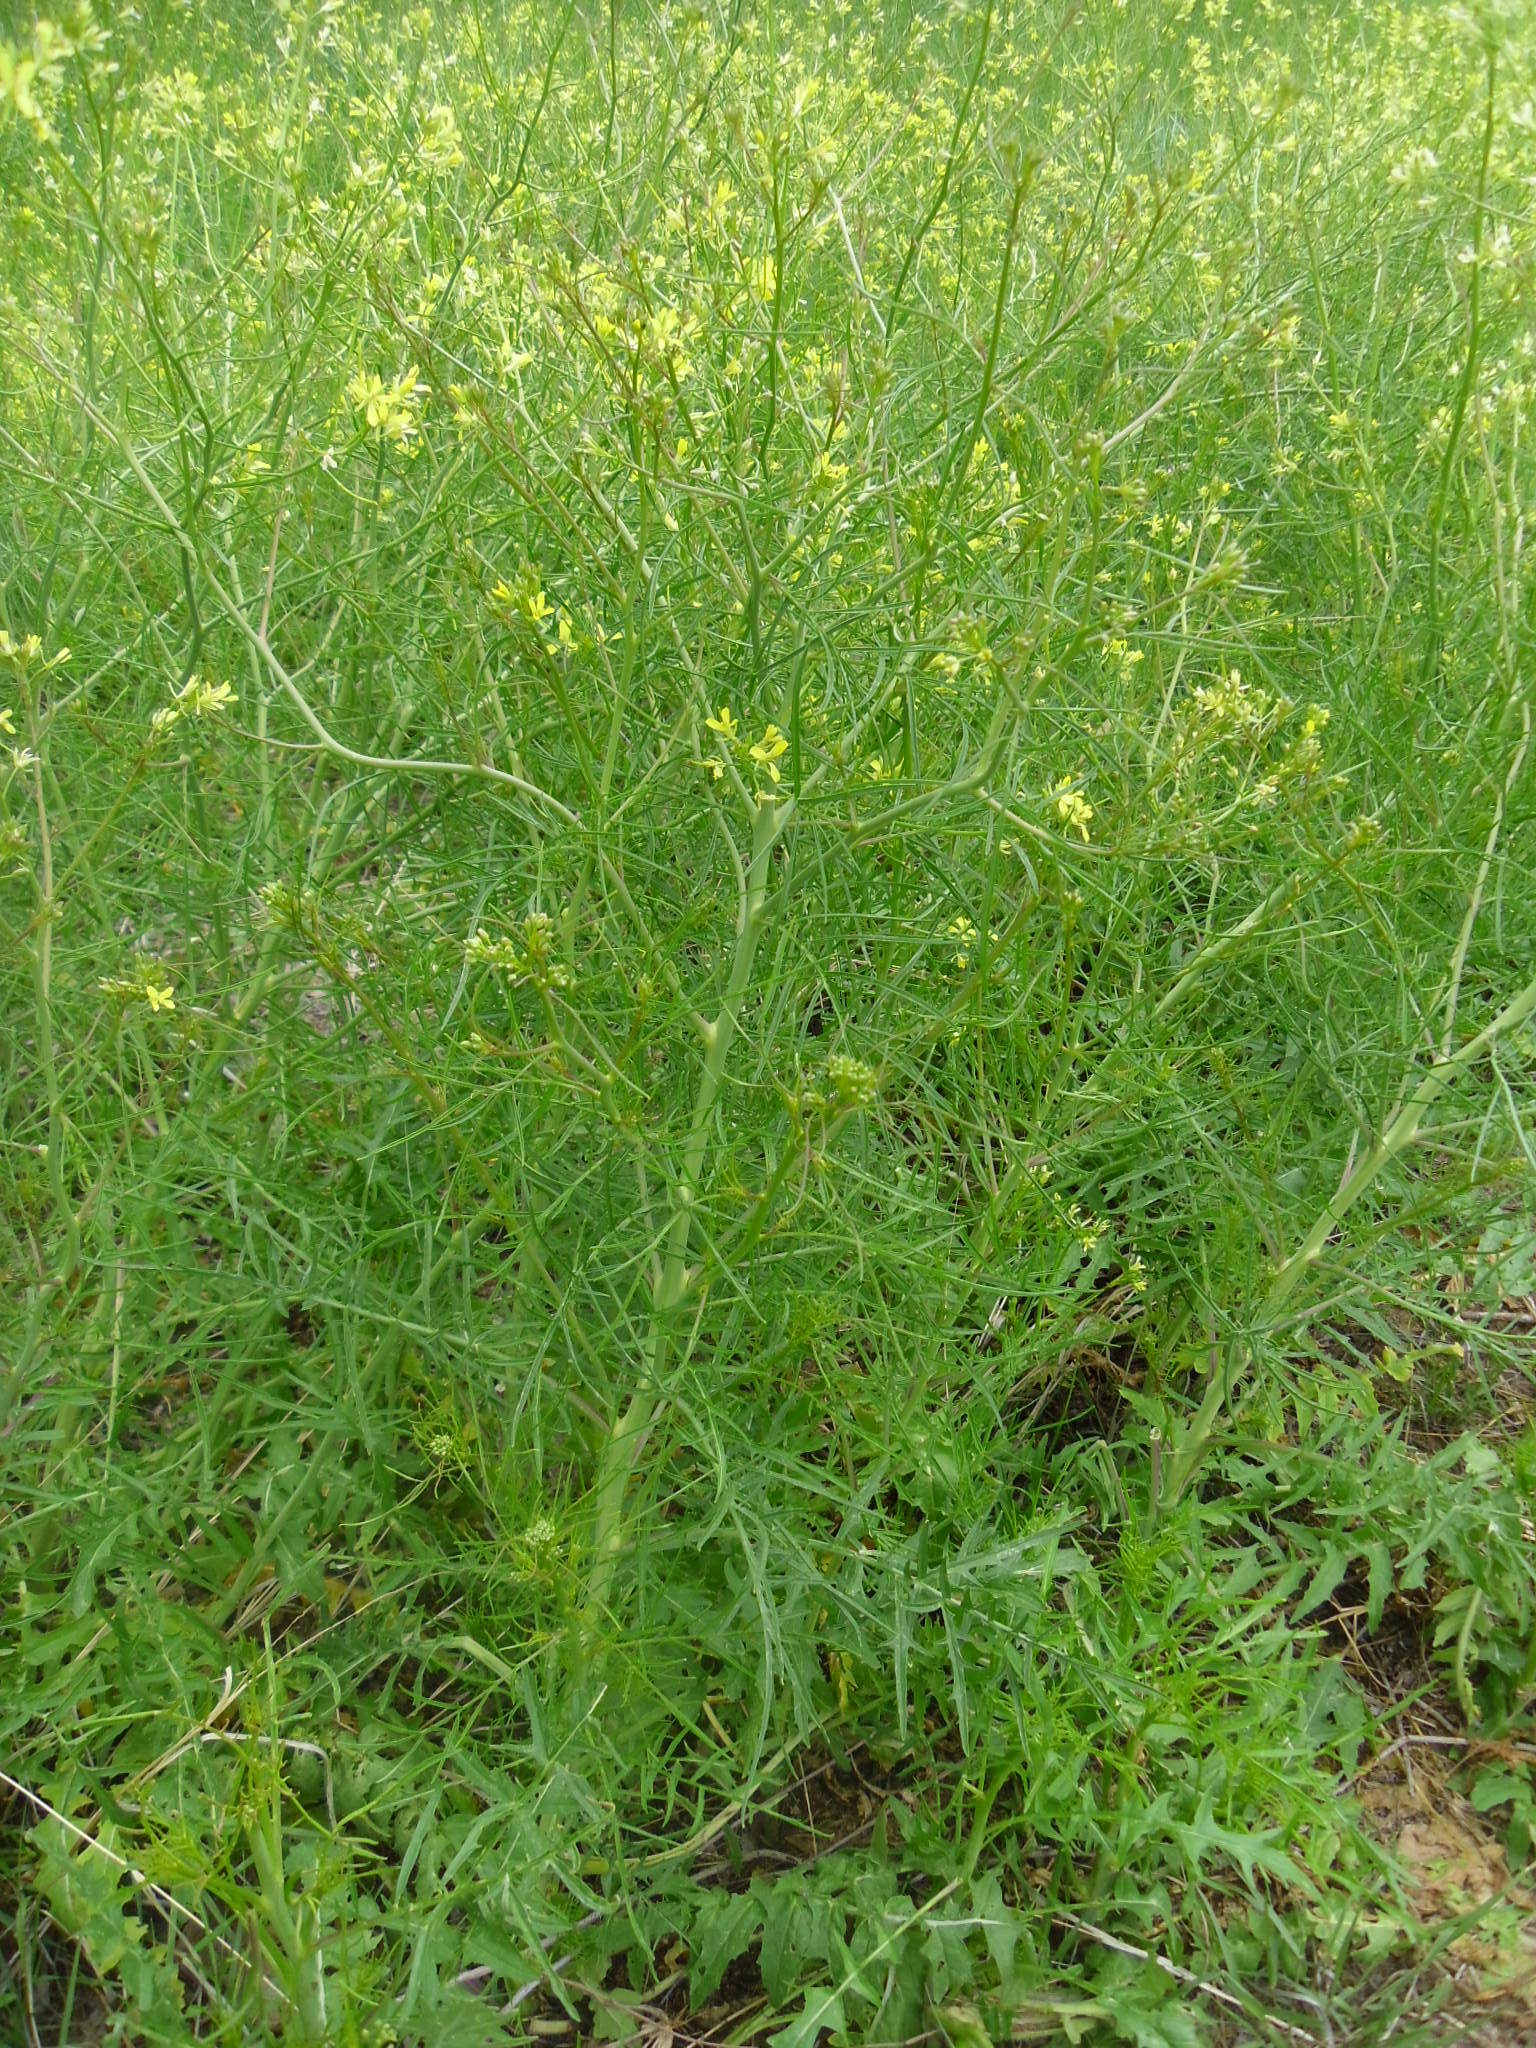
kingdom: Plantae
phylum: Tracheophyta
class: Magnoliopsida
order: Brassicales
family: Brassicaceae
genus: Sisymbrium
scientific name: Sisymbrium altissimum
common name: Tall rocket
